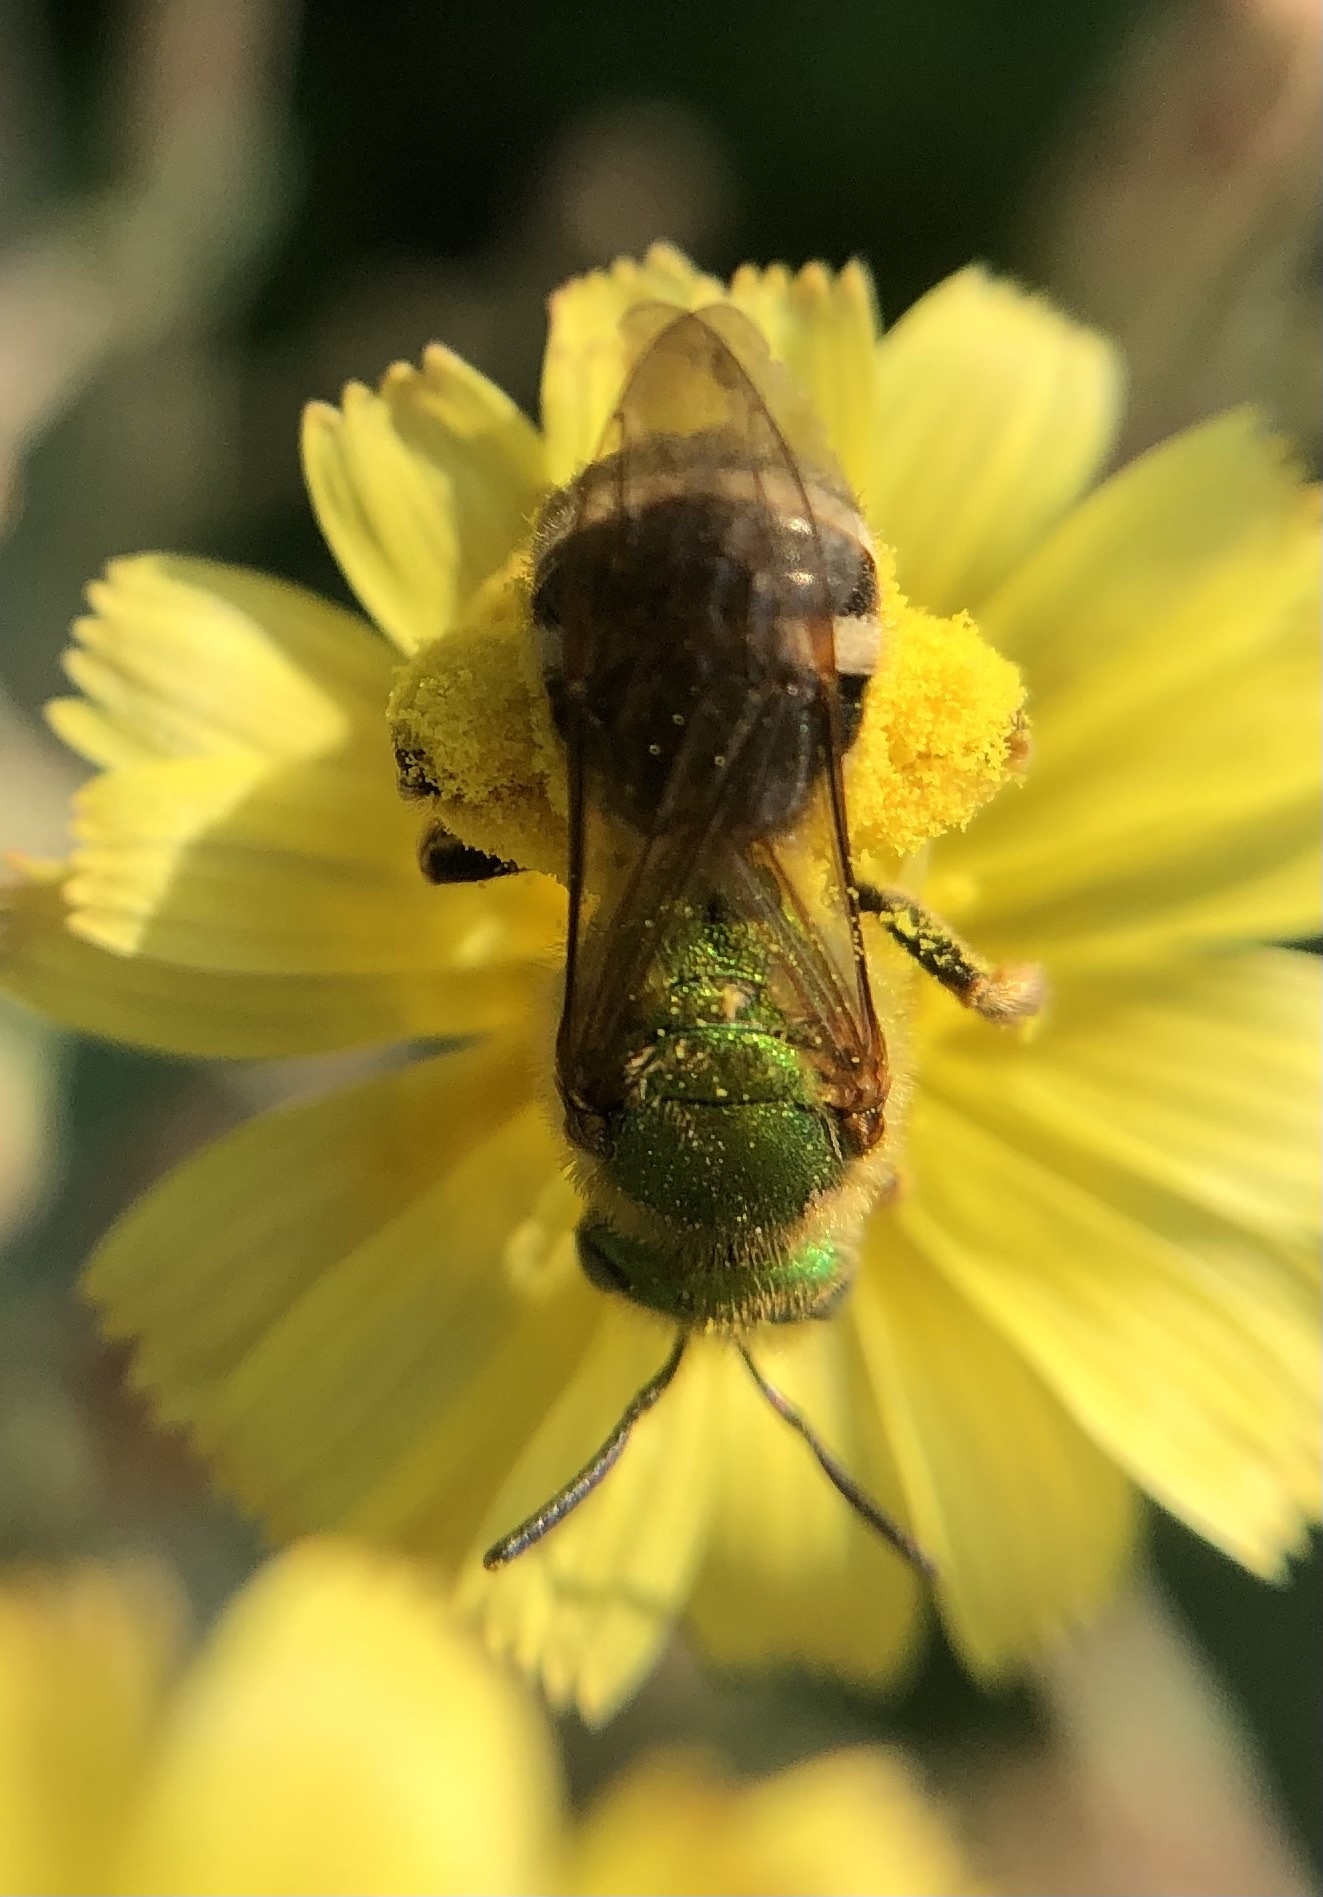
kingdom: Animalia
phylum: Arthropoda
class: Insecta
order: Hymenoptera
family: Halictidae
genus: Agapostemon
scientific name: Agapostemon virescens
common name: Bicolored striped sweat bee
